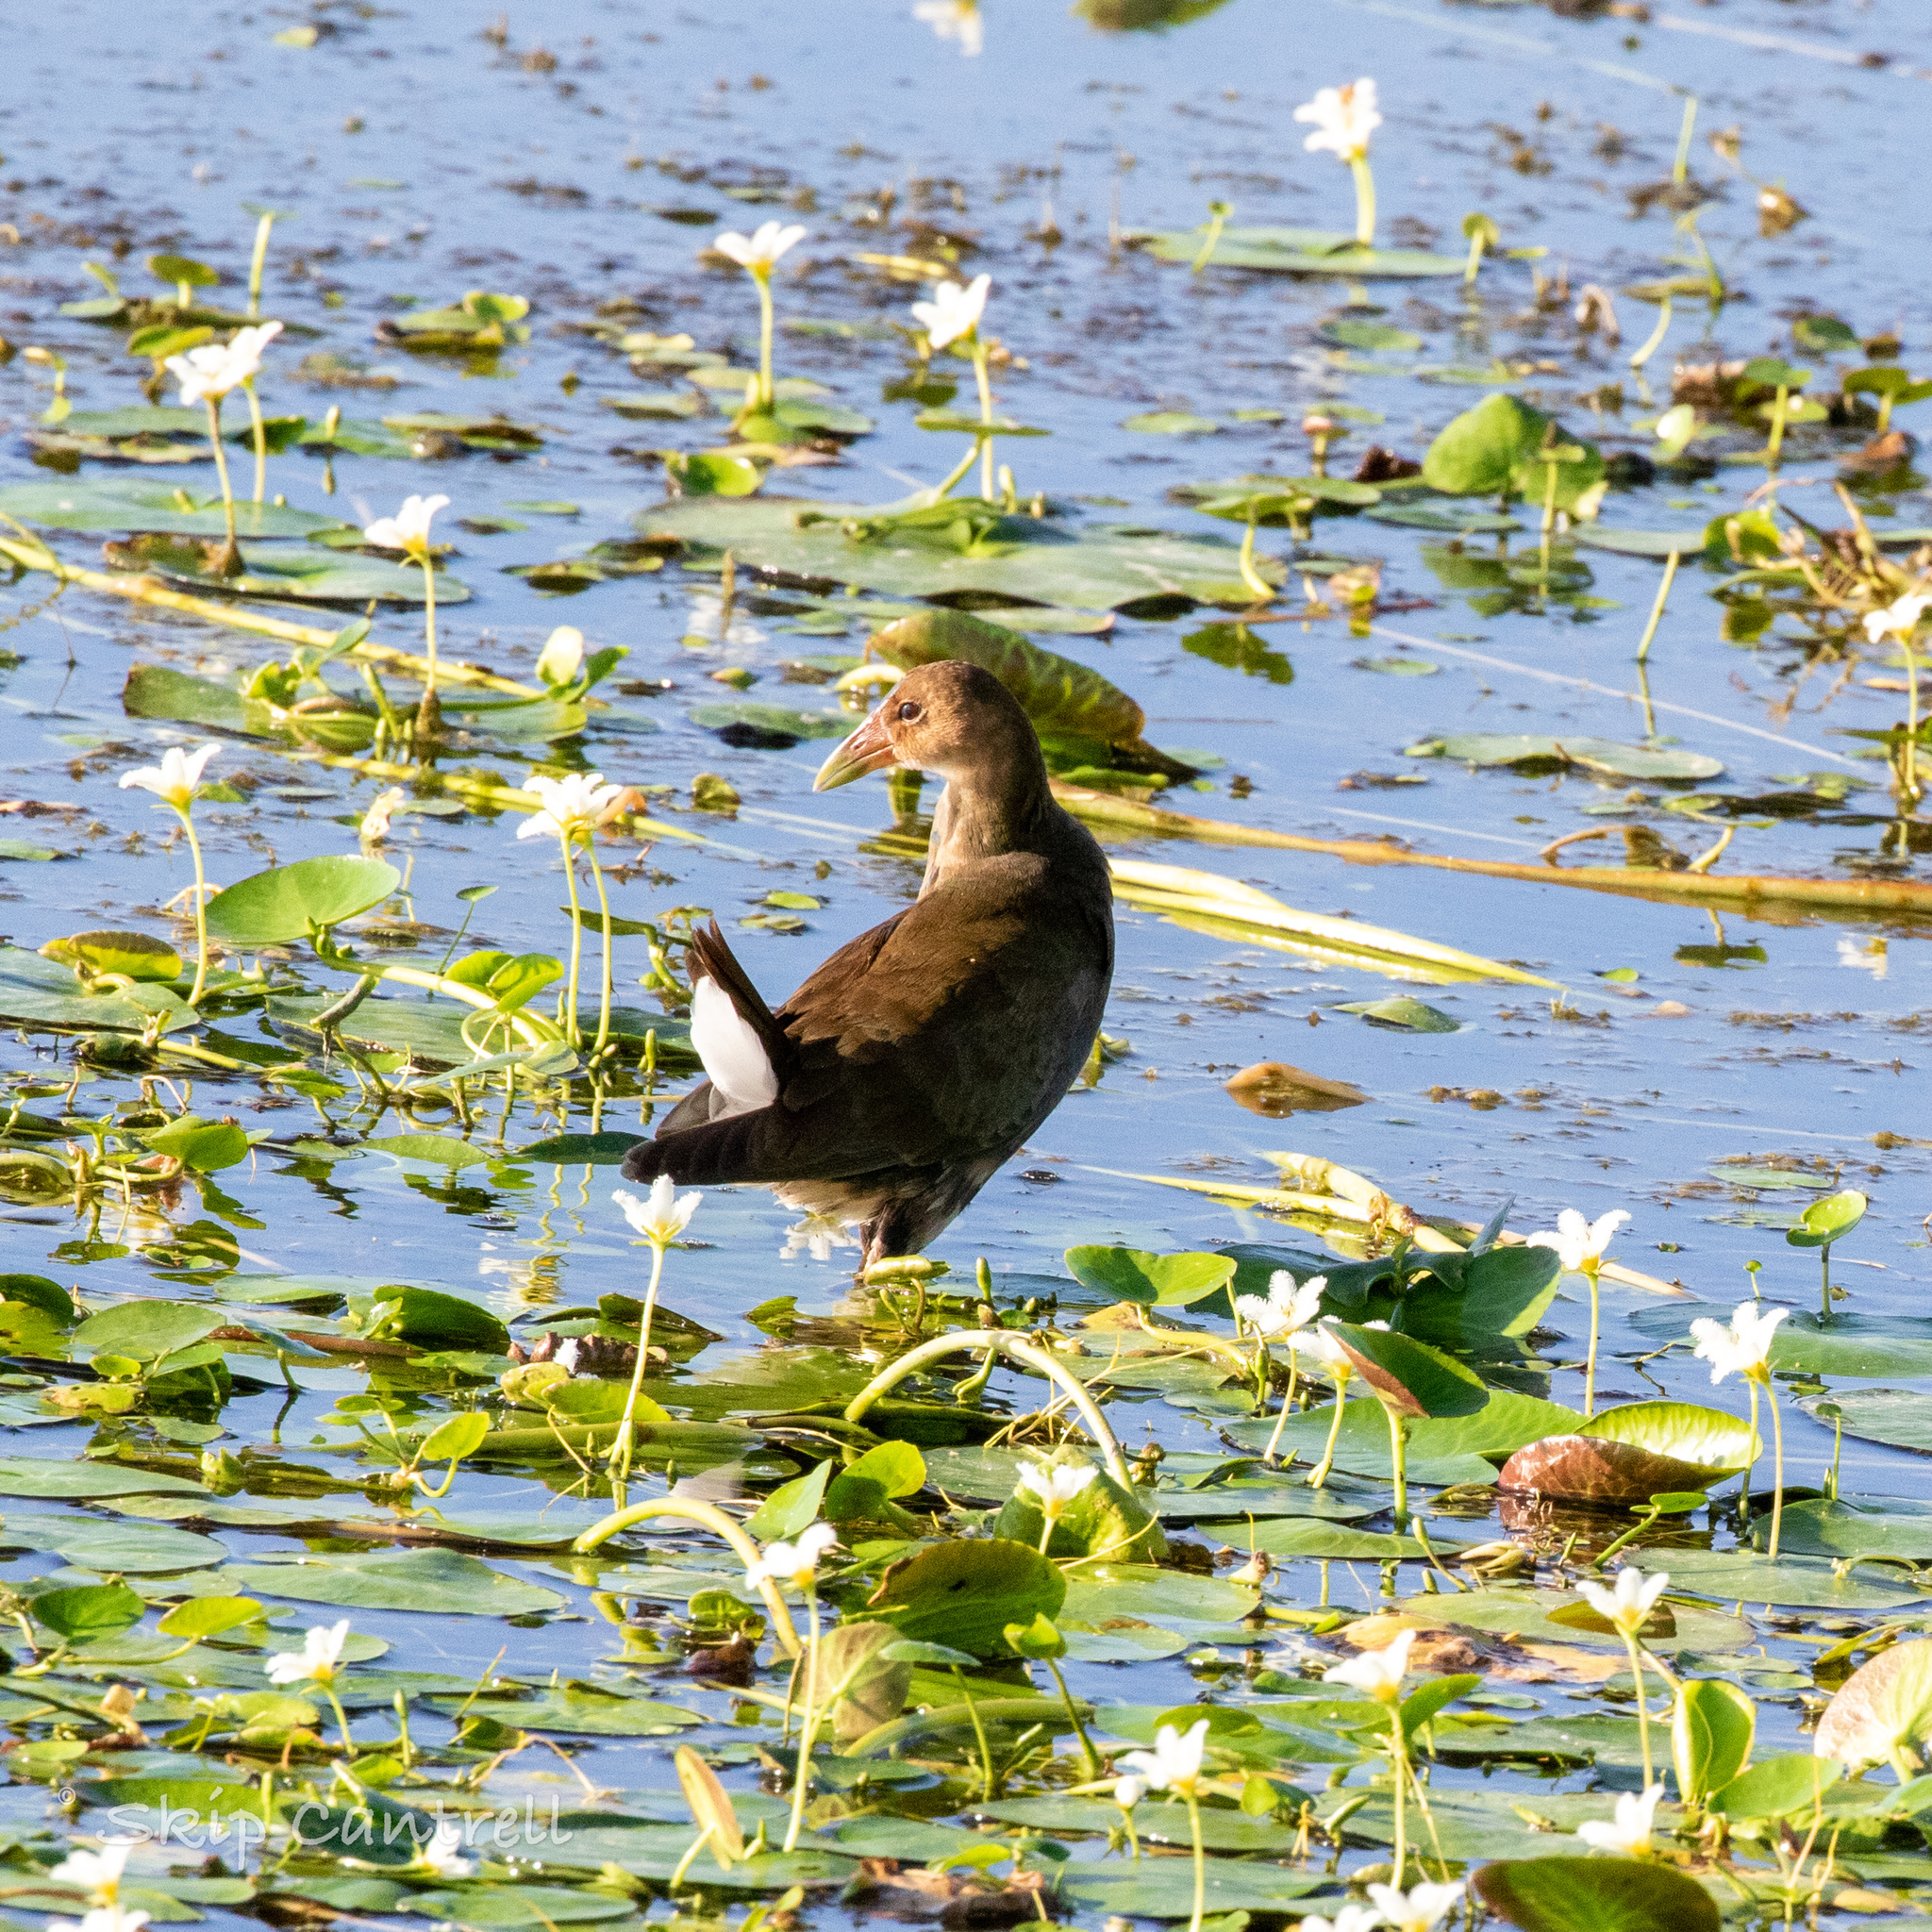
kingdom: Animalia
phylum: Chordata
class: Aves
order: Gruiformes
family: Rallidae
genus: Porphyrio
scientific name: Porphyrio martinica
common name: Purple gallinule
